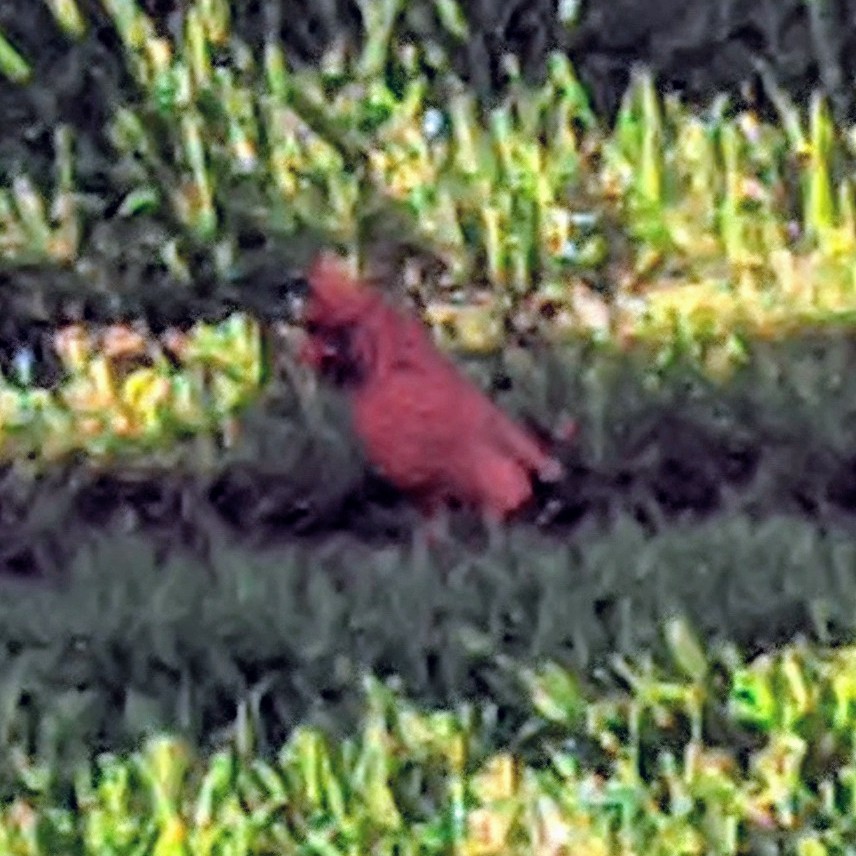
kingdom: Animalia
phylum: Chordata
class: Aves
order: Passeriformes
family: Cardinalidae
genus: Cardinalis
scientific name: Cardinalis cardinalis
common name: Northern cardinal
